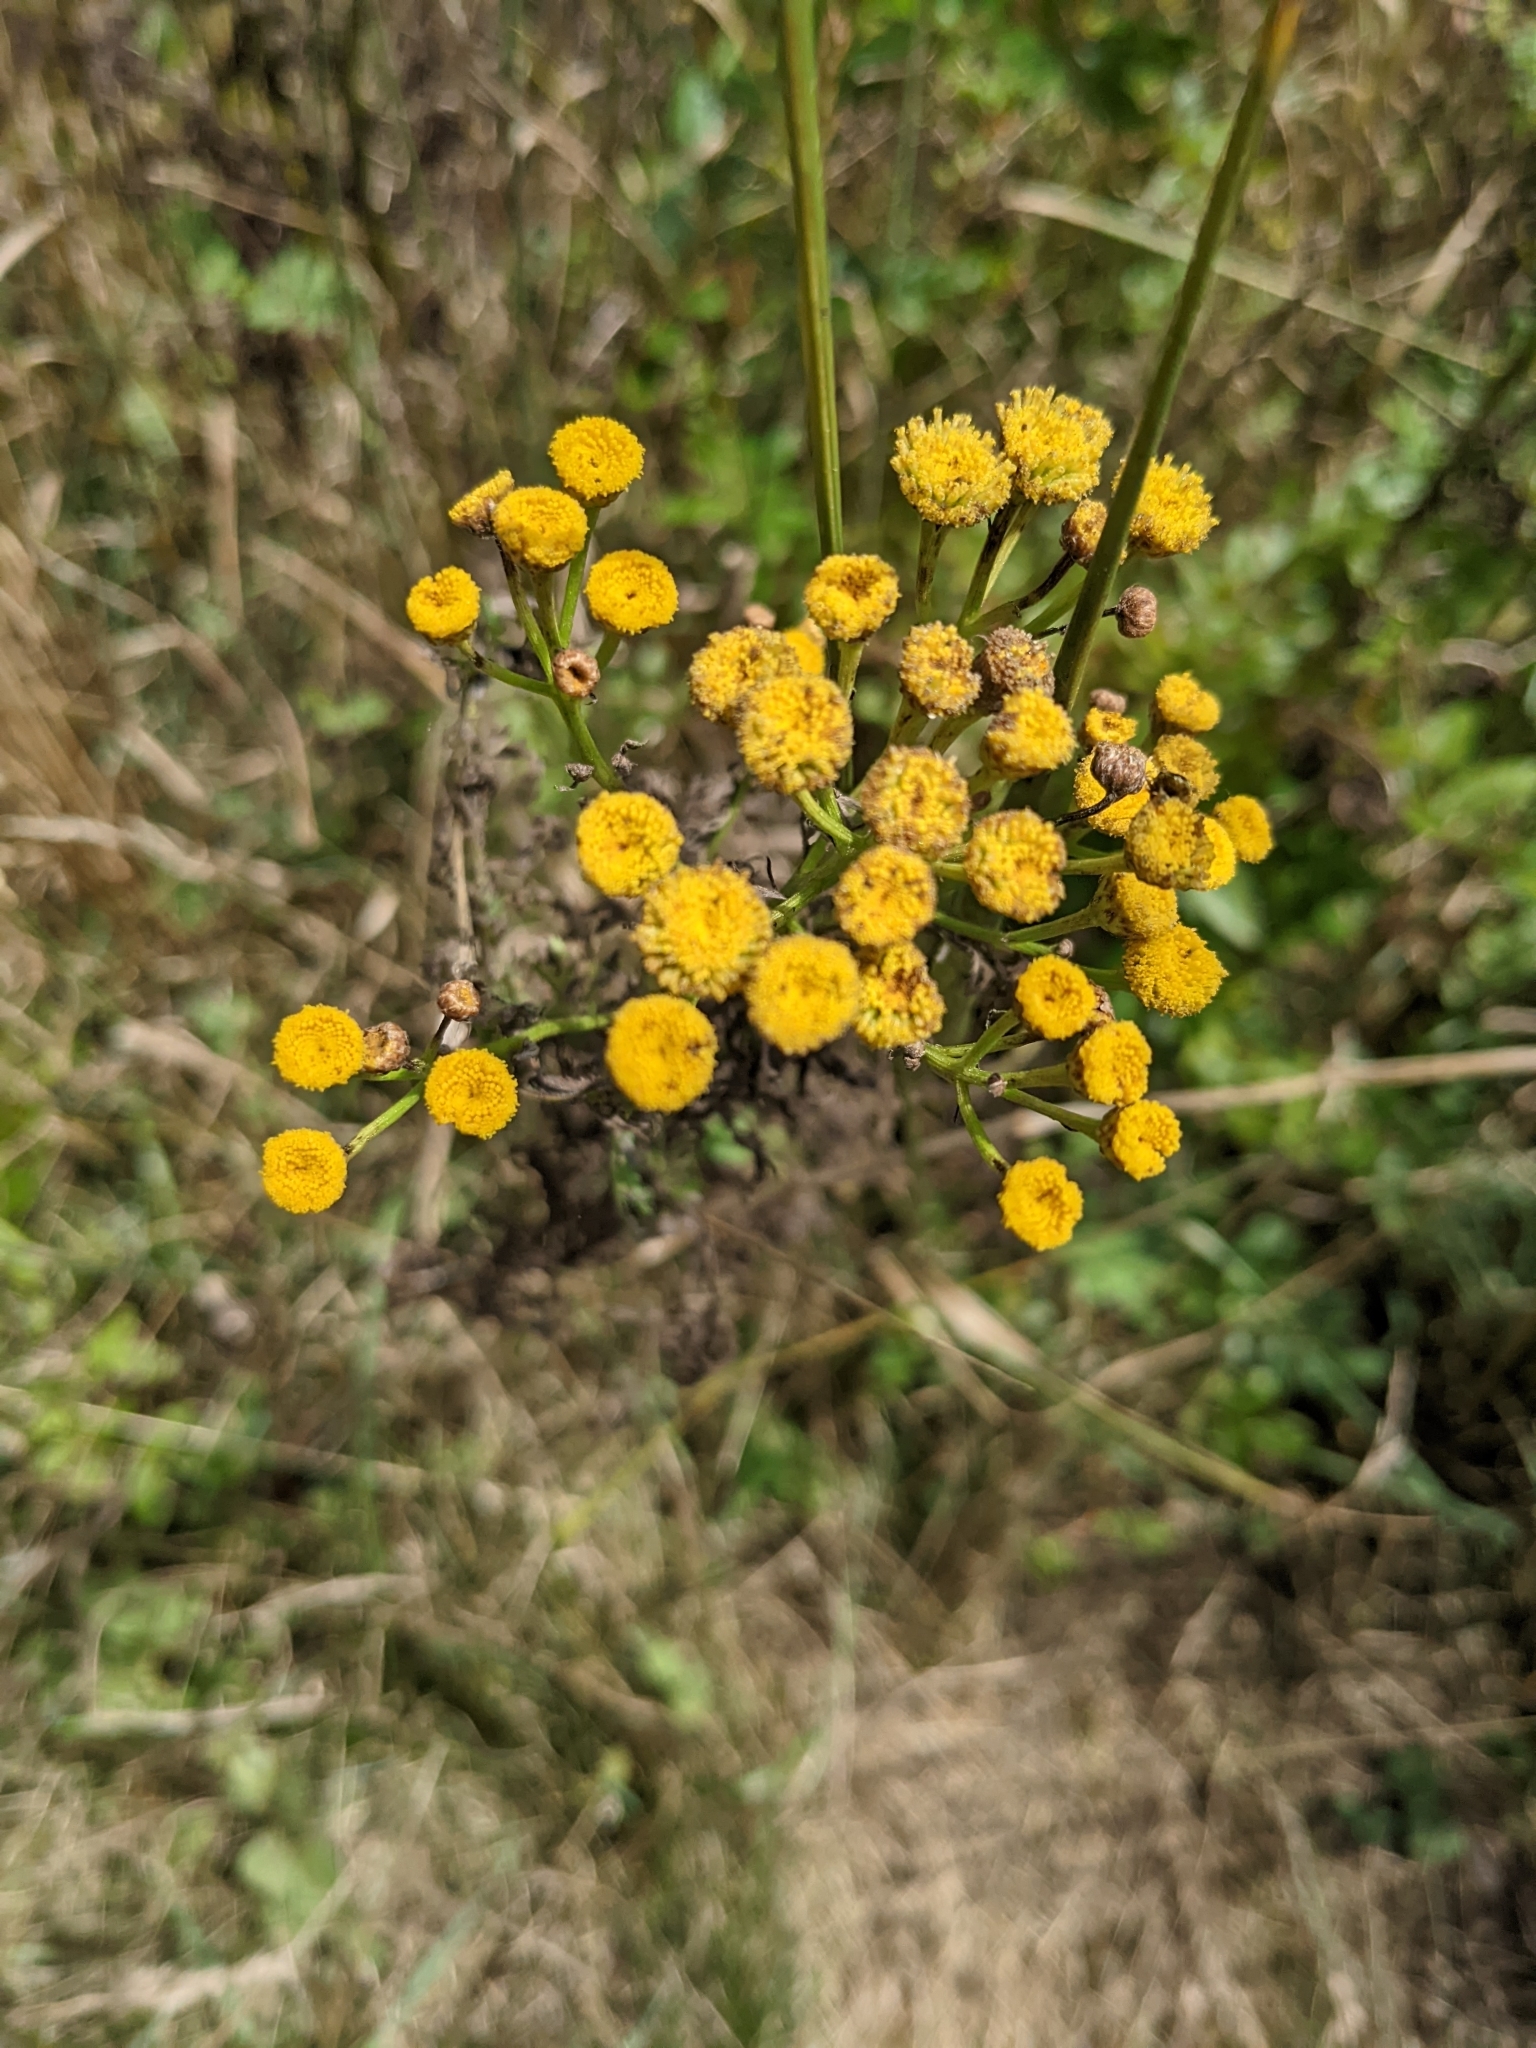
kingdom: Plantae
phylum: Tracheophyta
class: Magnoliopsida
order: Asterales
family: Asteraceae
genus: Tanacetum
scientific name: Tanacetum vulgare
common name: Common tansy
